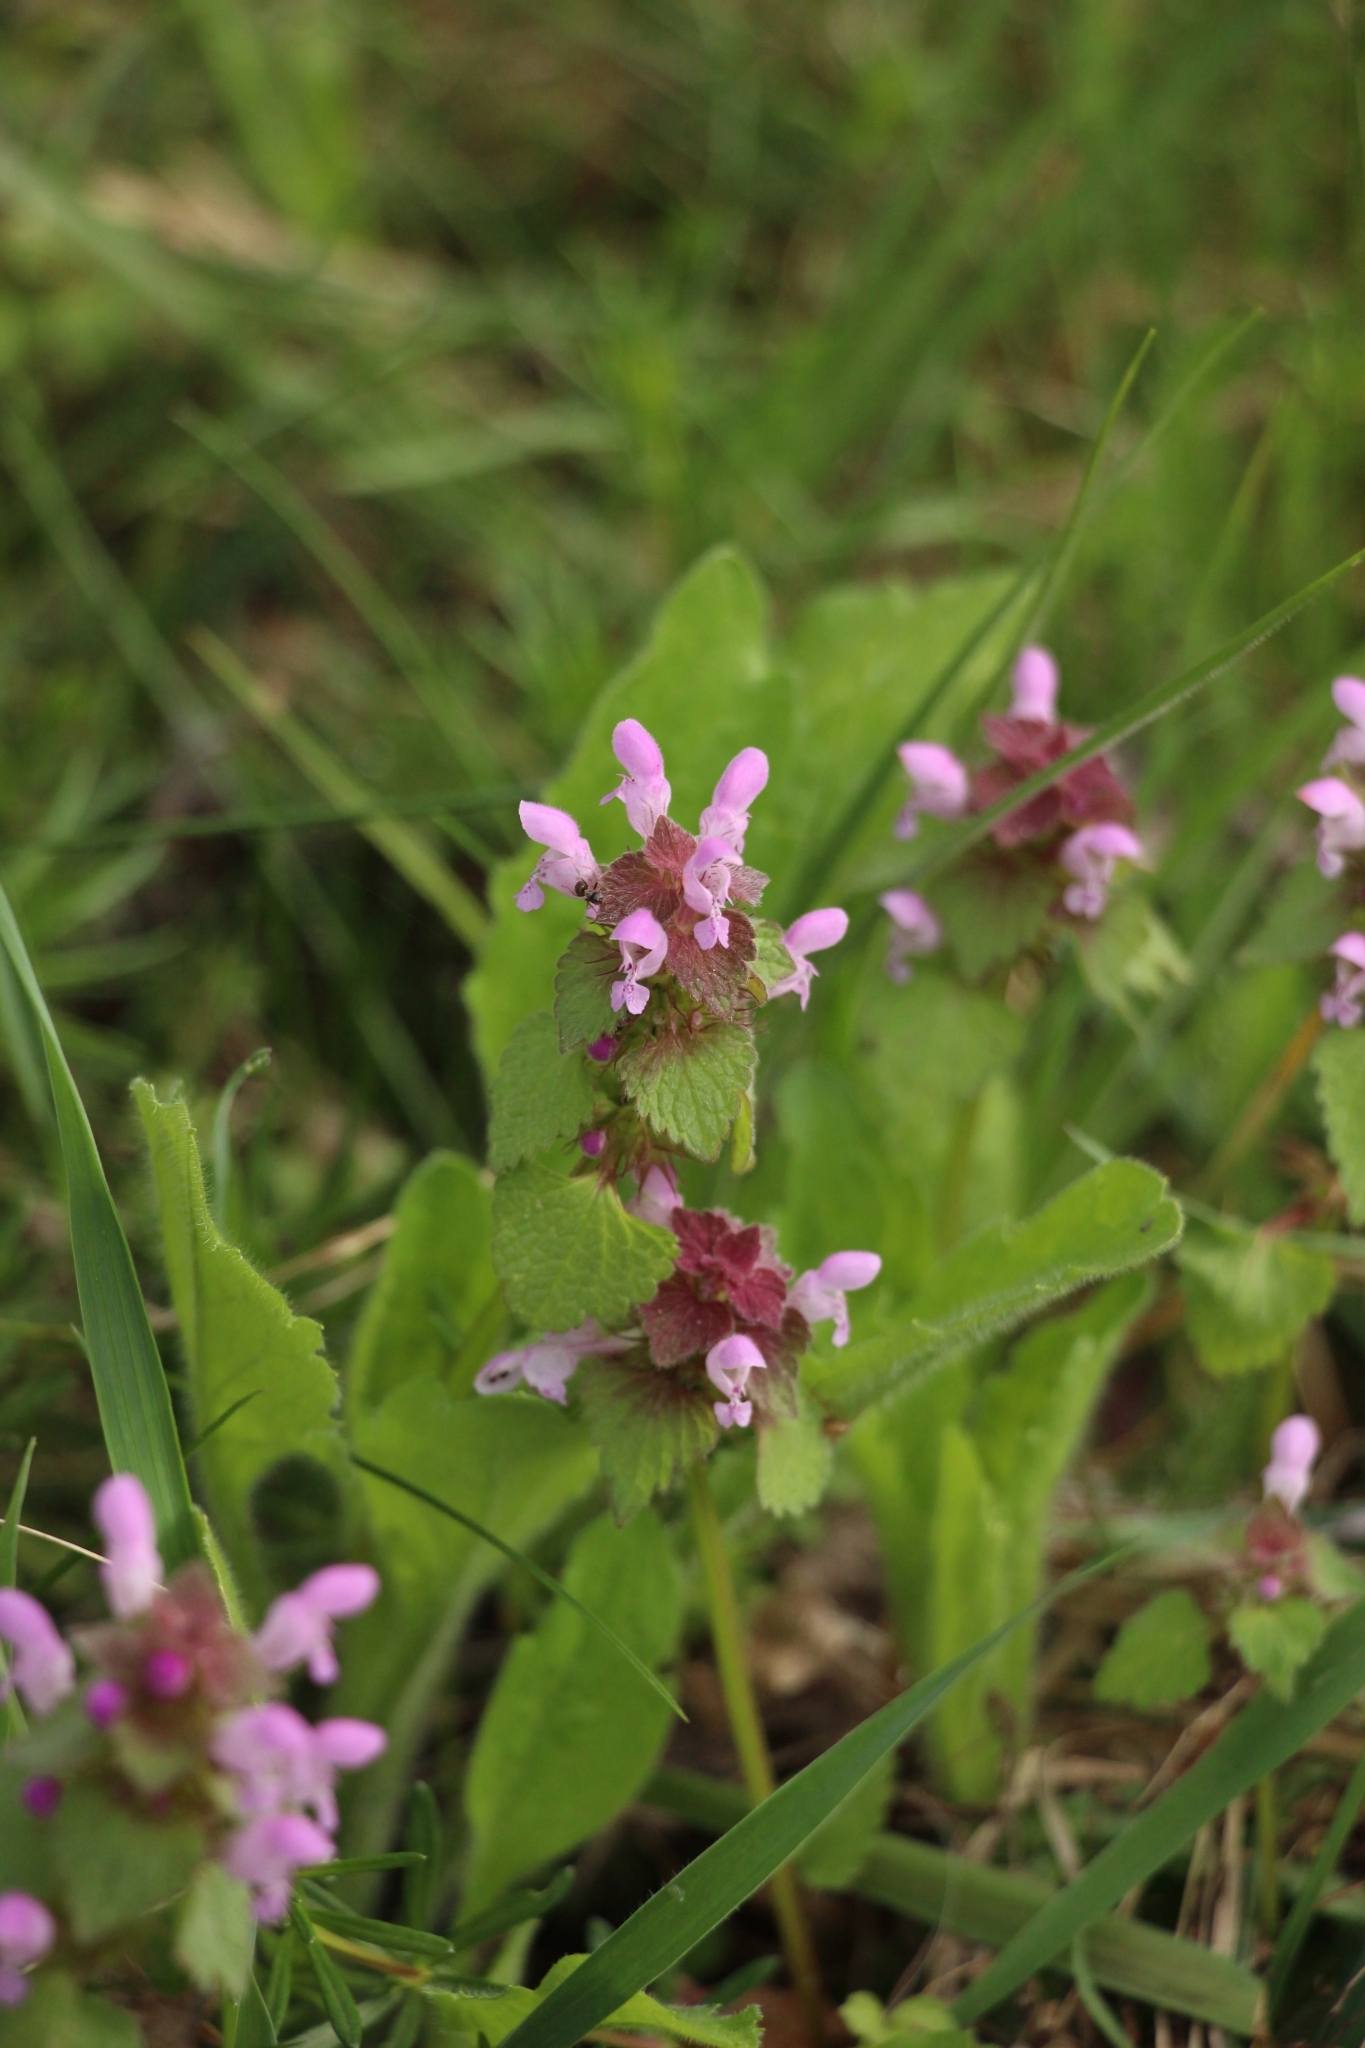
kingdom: Plantae
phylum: Tracheophyta
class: Magnoliopsida
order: Lamiales
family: Lamiaceae
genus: Lamium
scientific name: Lamium purpureum
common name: Red dead-nettle
